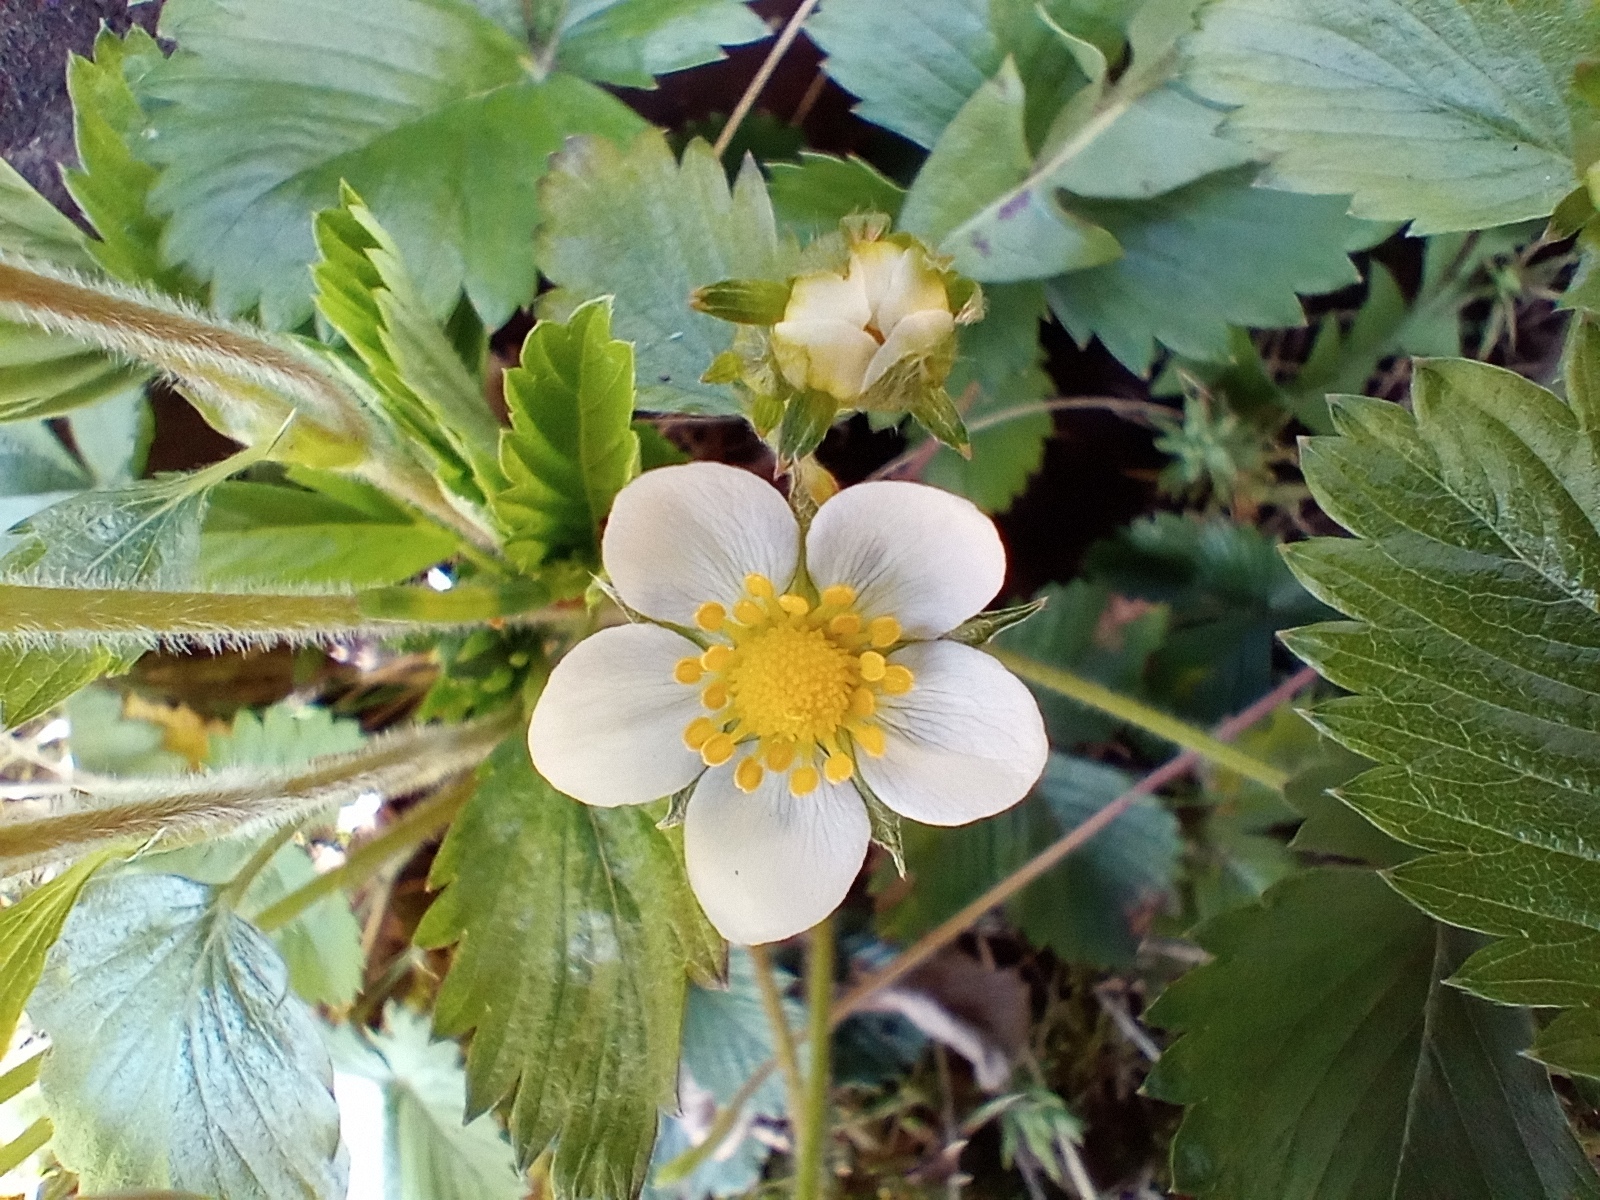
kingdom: Plantae
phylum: Tracheophyta
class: Magnoliopsida
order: Rosales
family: Rosaceae
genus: Fragaria
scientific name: Fragaria vesca
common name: Wild strawberry
